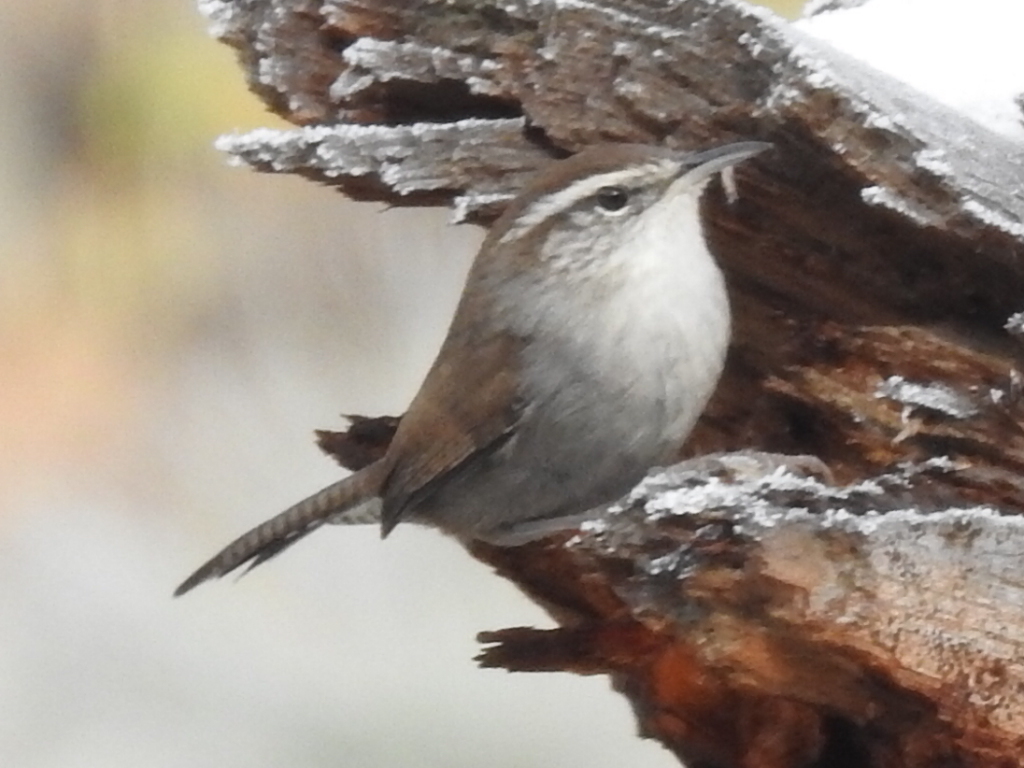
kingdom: Animalia
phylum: Chordata
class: Aves
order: Passeriformes
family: Troglodytidae
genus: Thryomanes
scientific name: Thryomanes bewickii
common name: Bewick's wren
